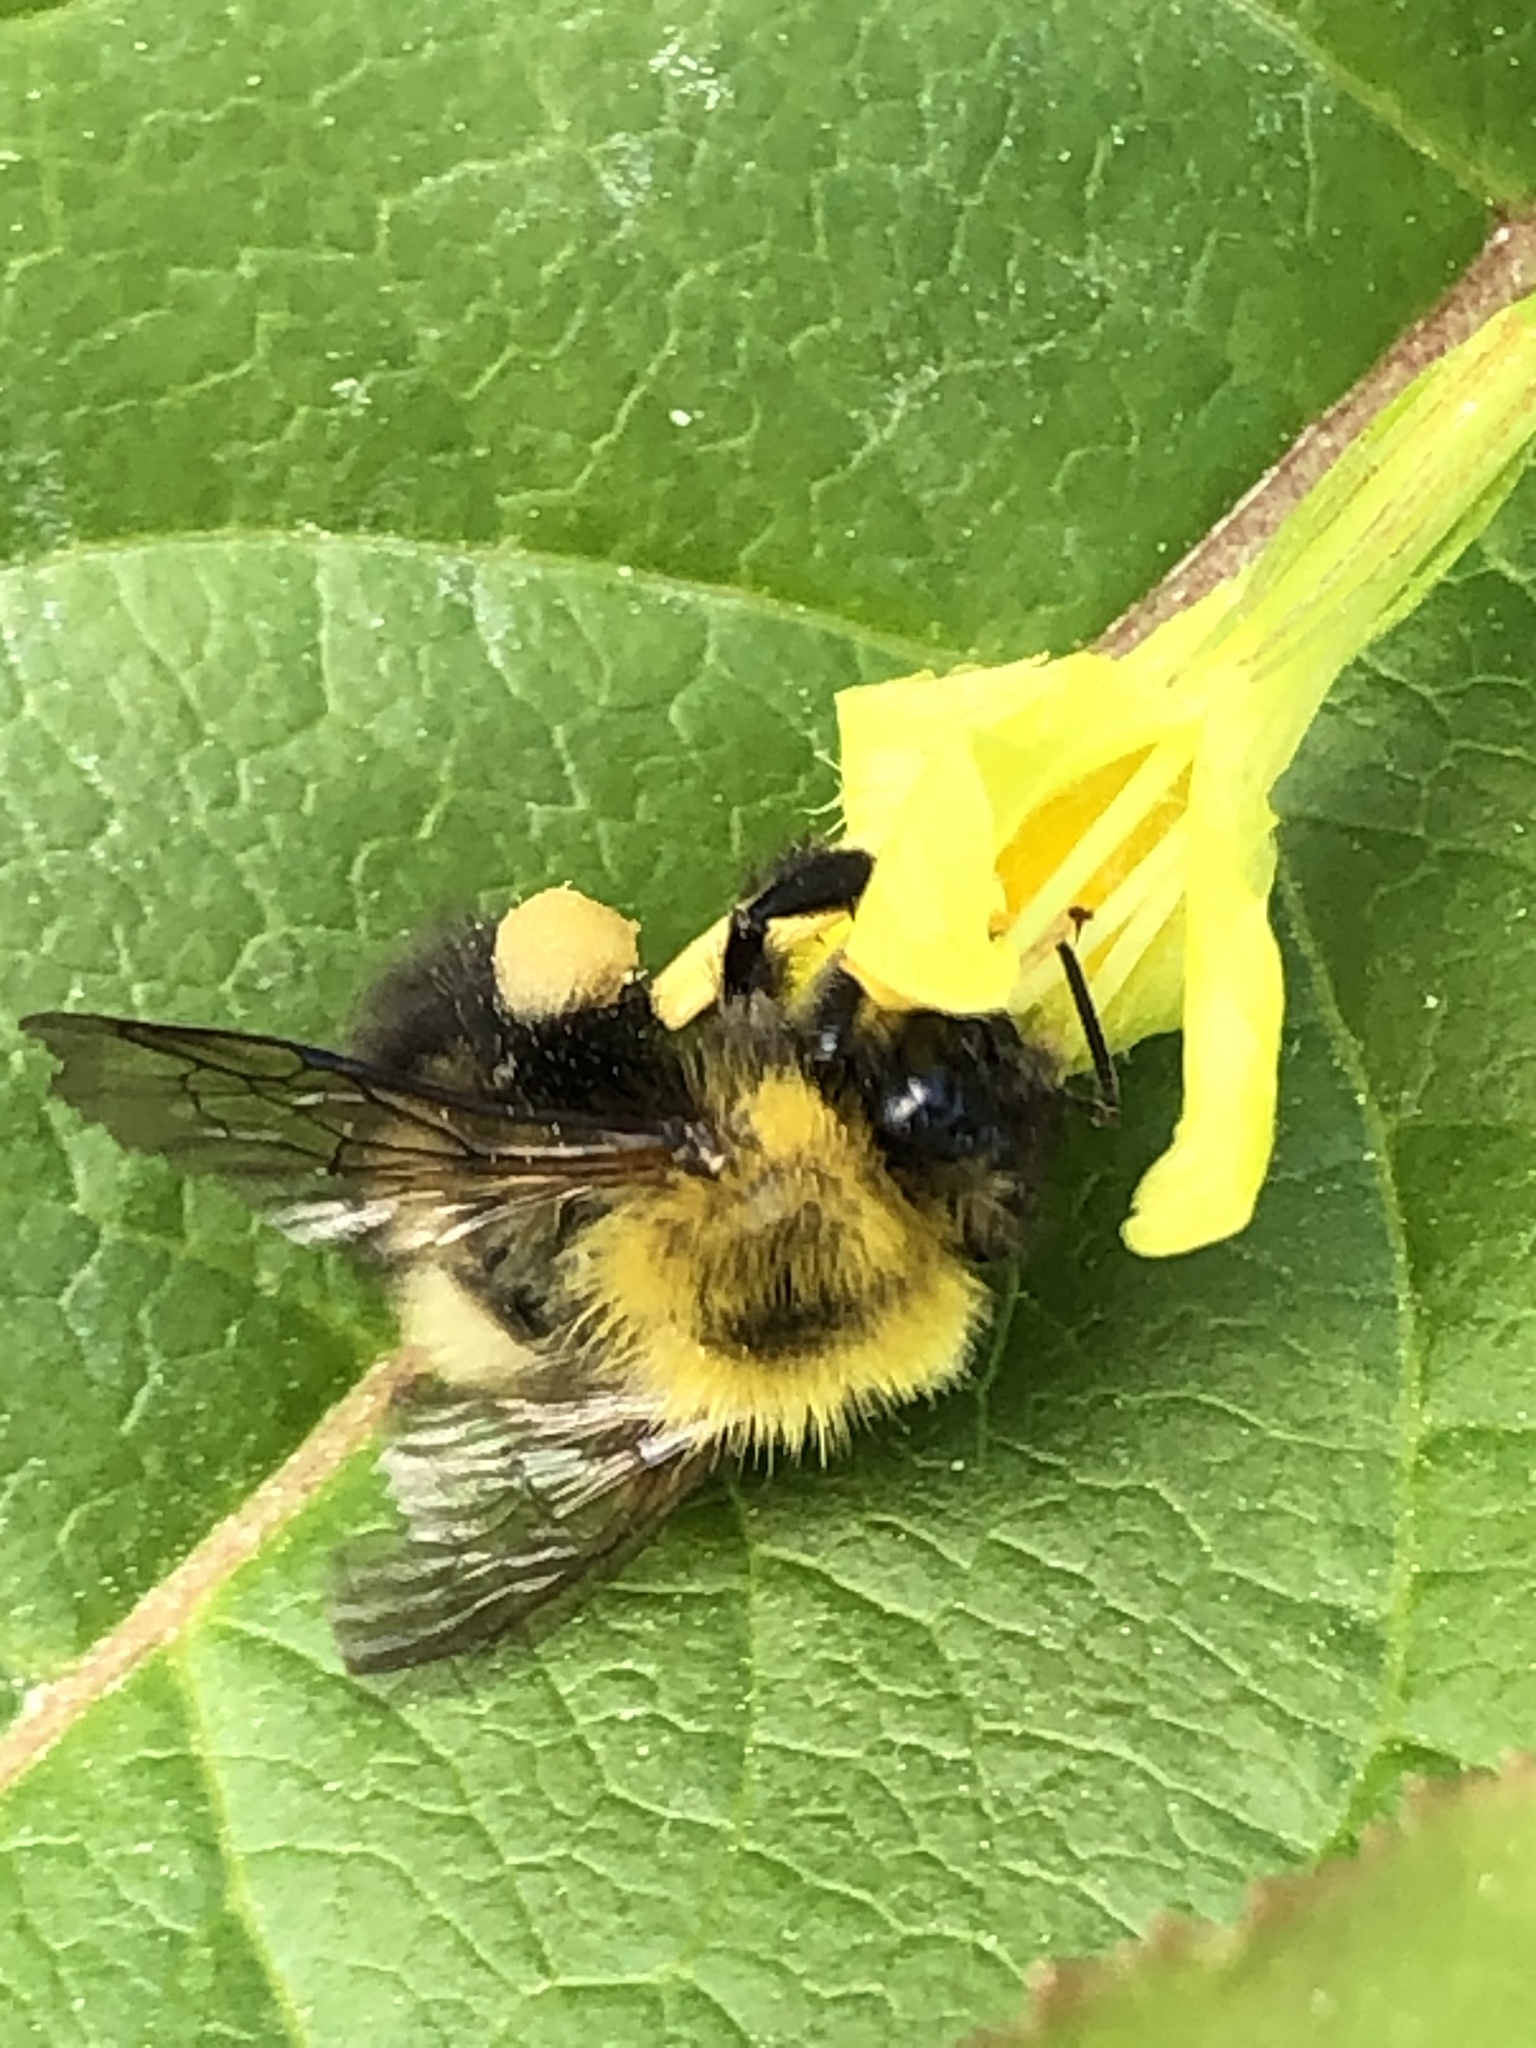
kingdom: Animalia
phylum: Arthropoda
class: Insecta
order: Hymenoptera
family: Apidae
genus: Bombus
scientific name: Bombus perplexus
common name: Confusing bumble bee
